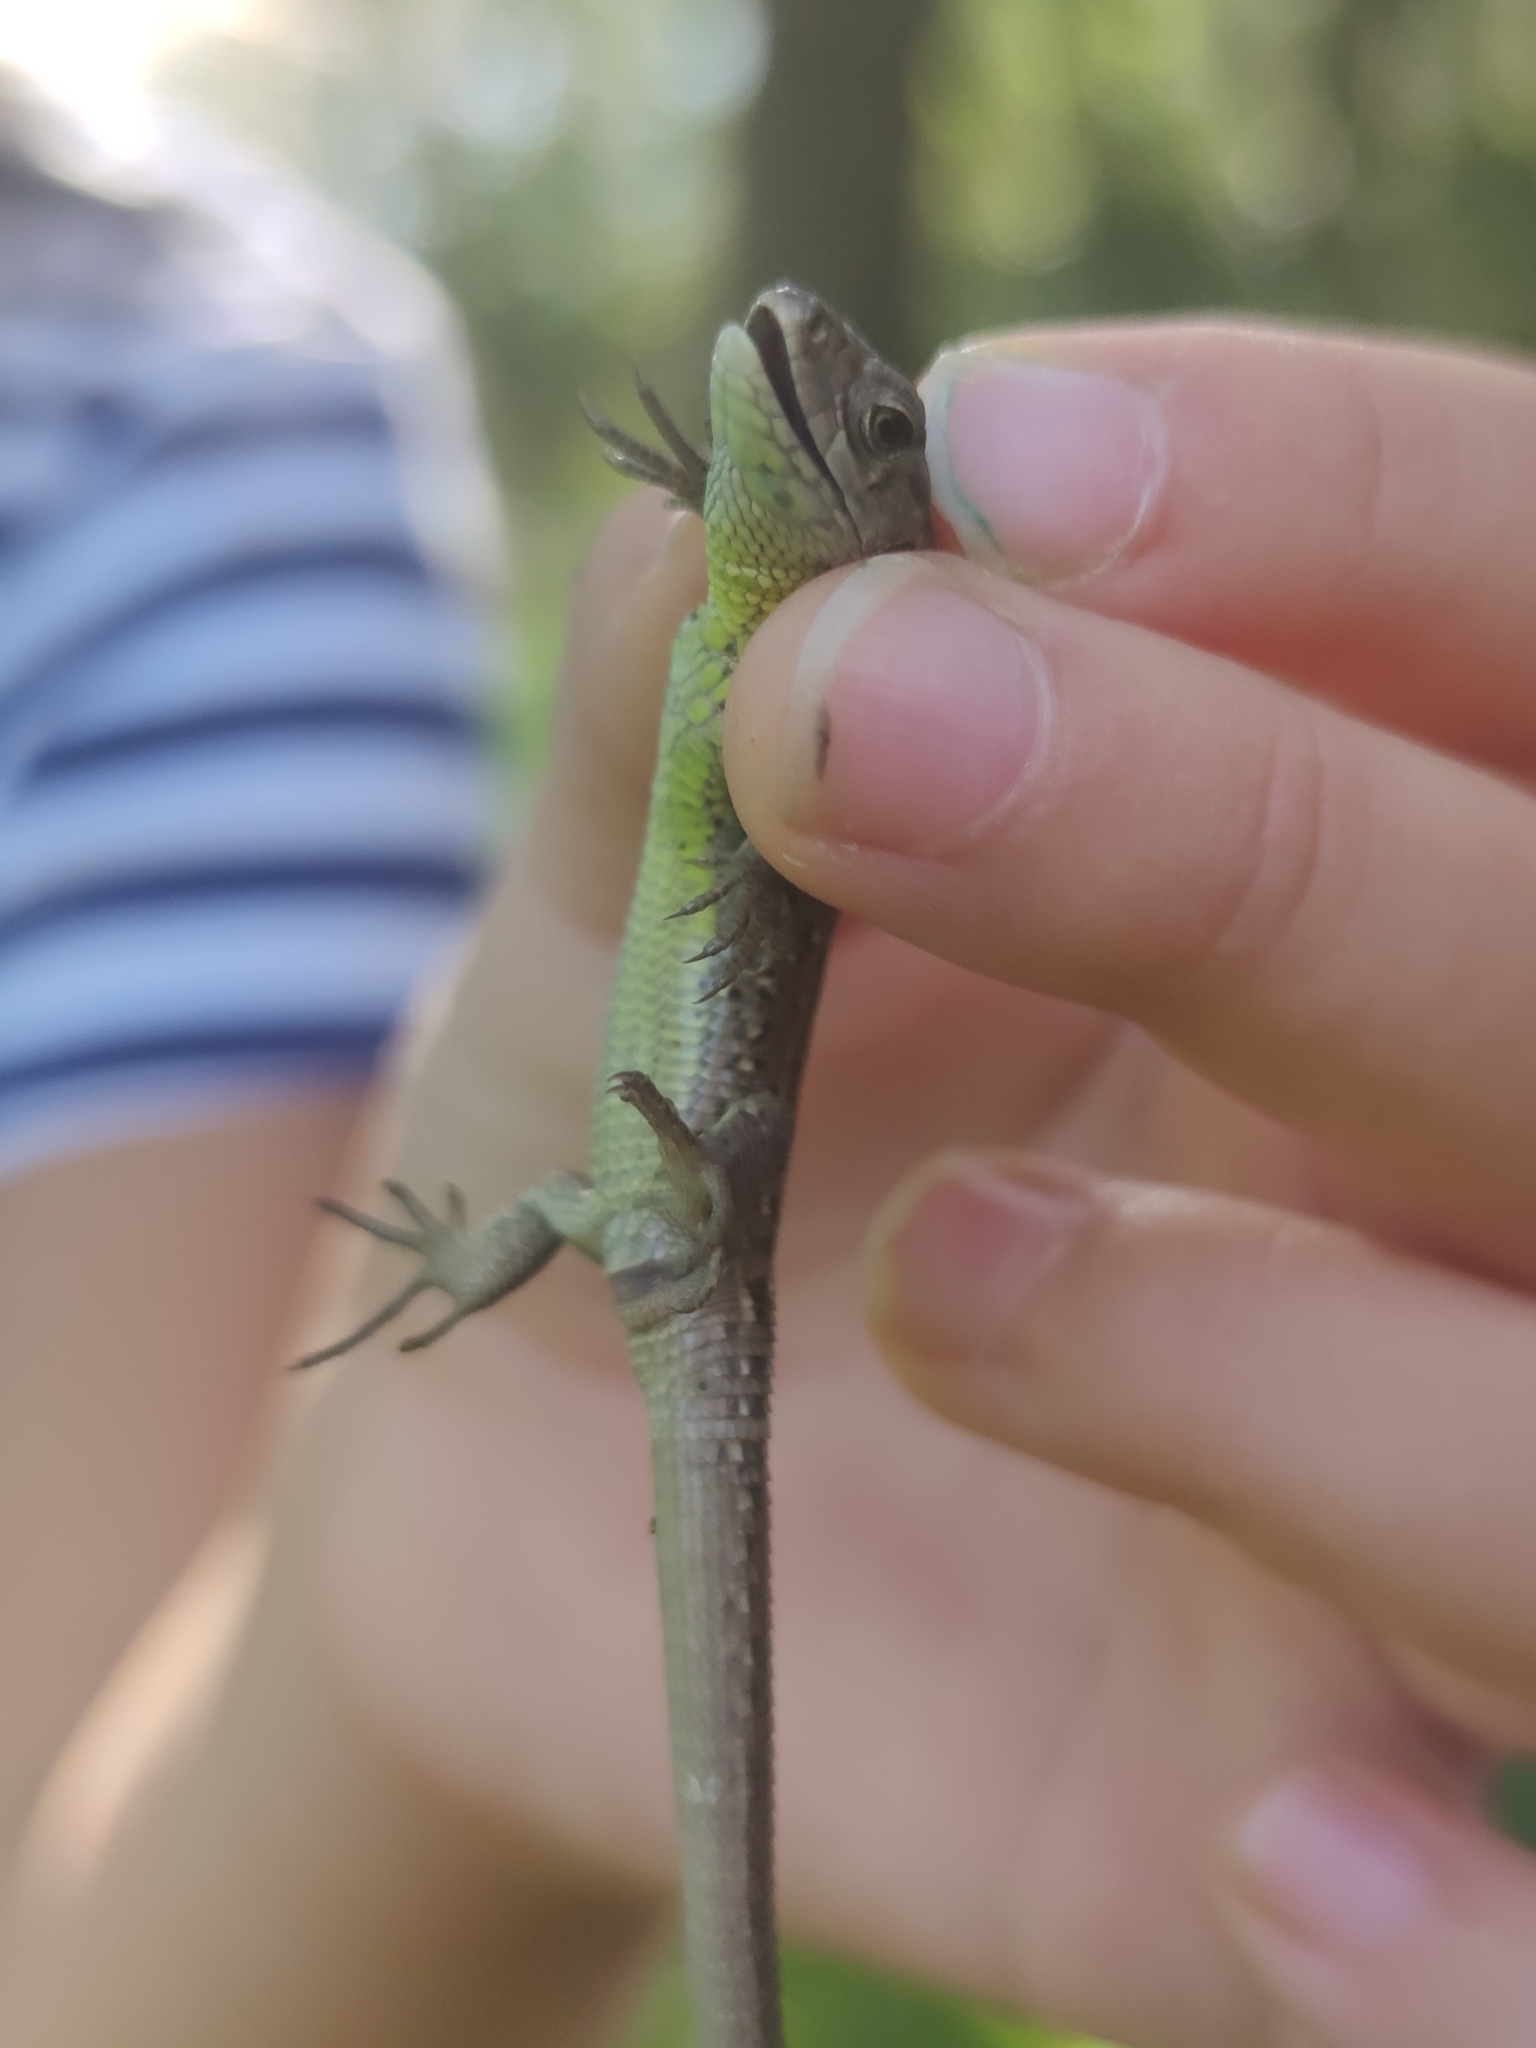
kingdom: Animalia
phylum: Chordata
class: Squamata
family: Lacertidae
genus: Lacerta
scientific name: Lacerta agilis
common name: Sand lizard
